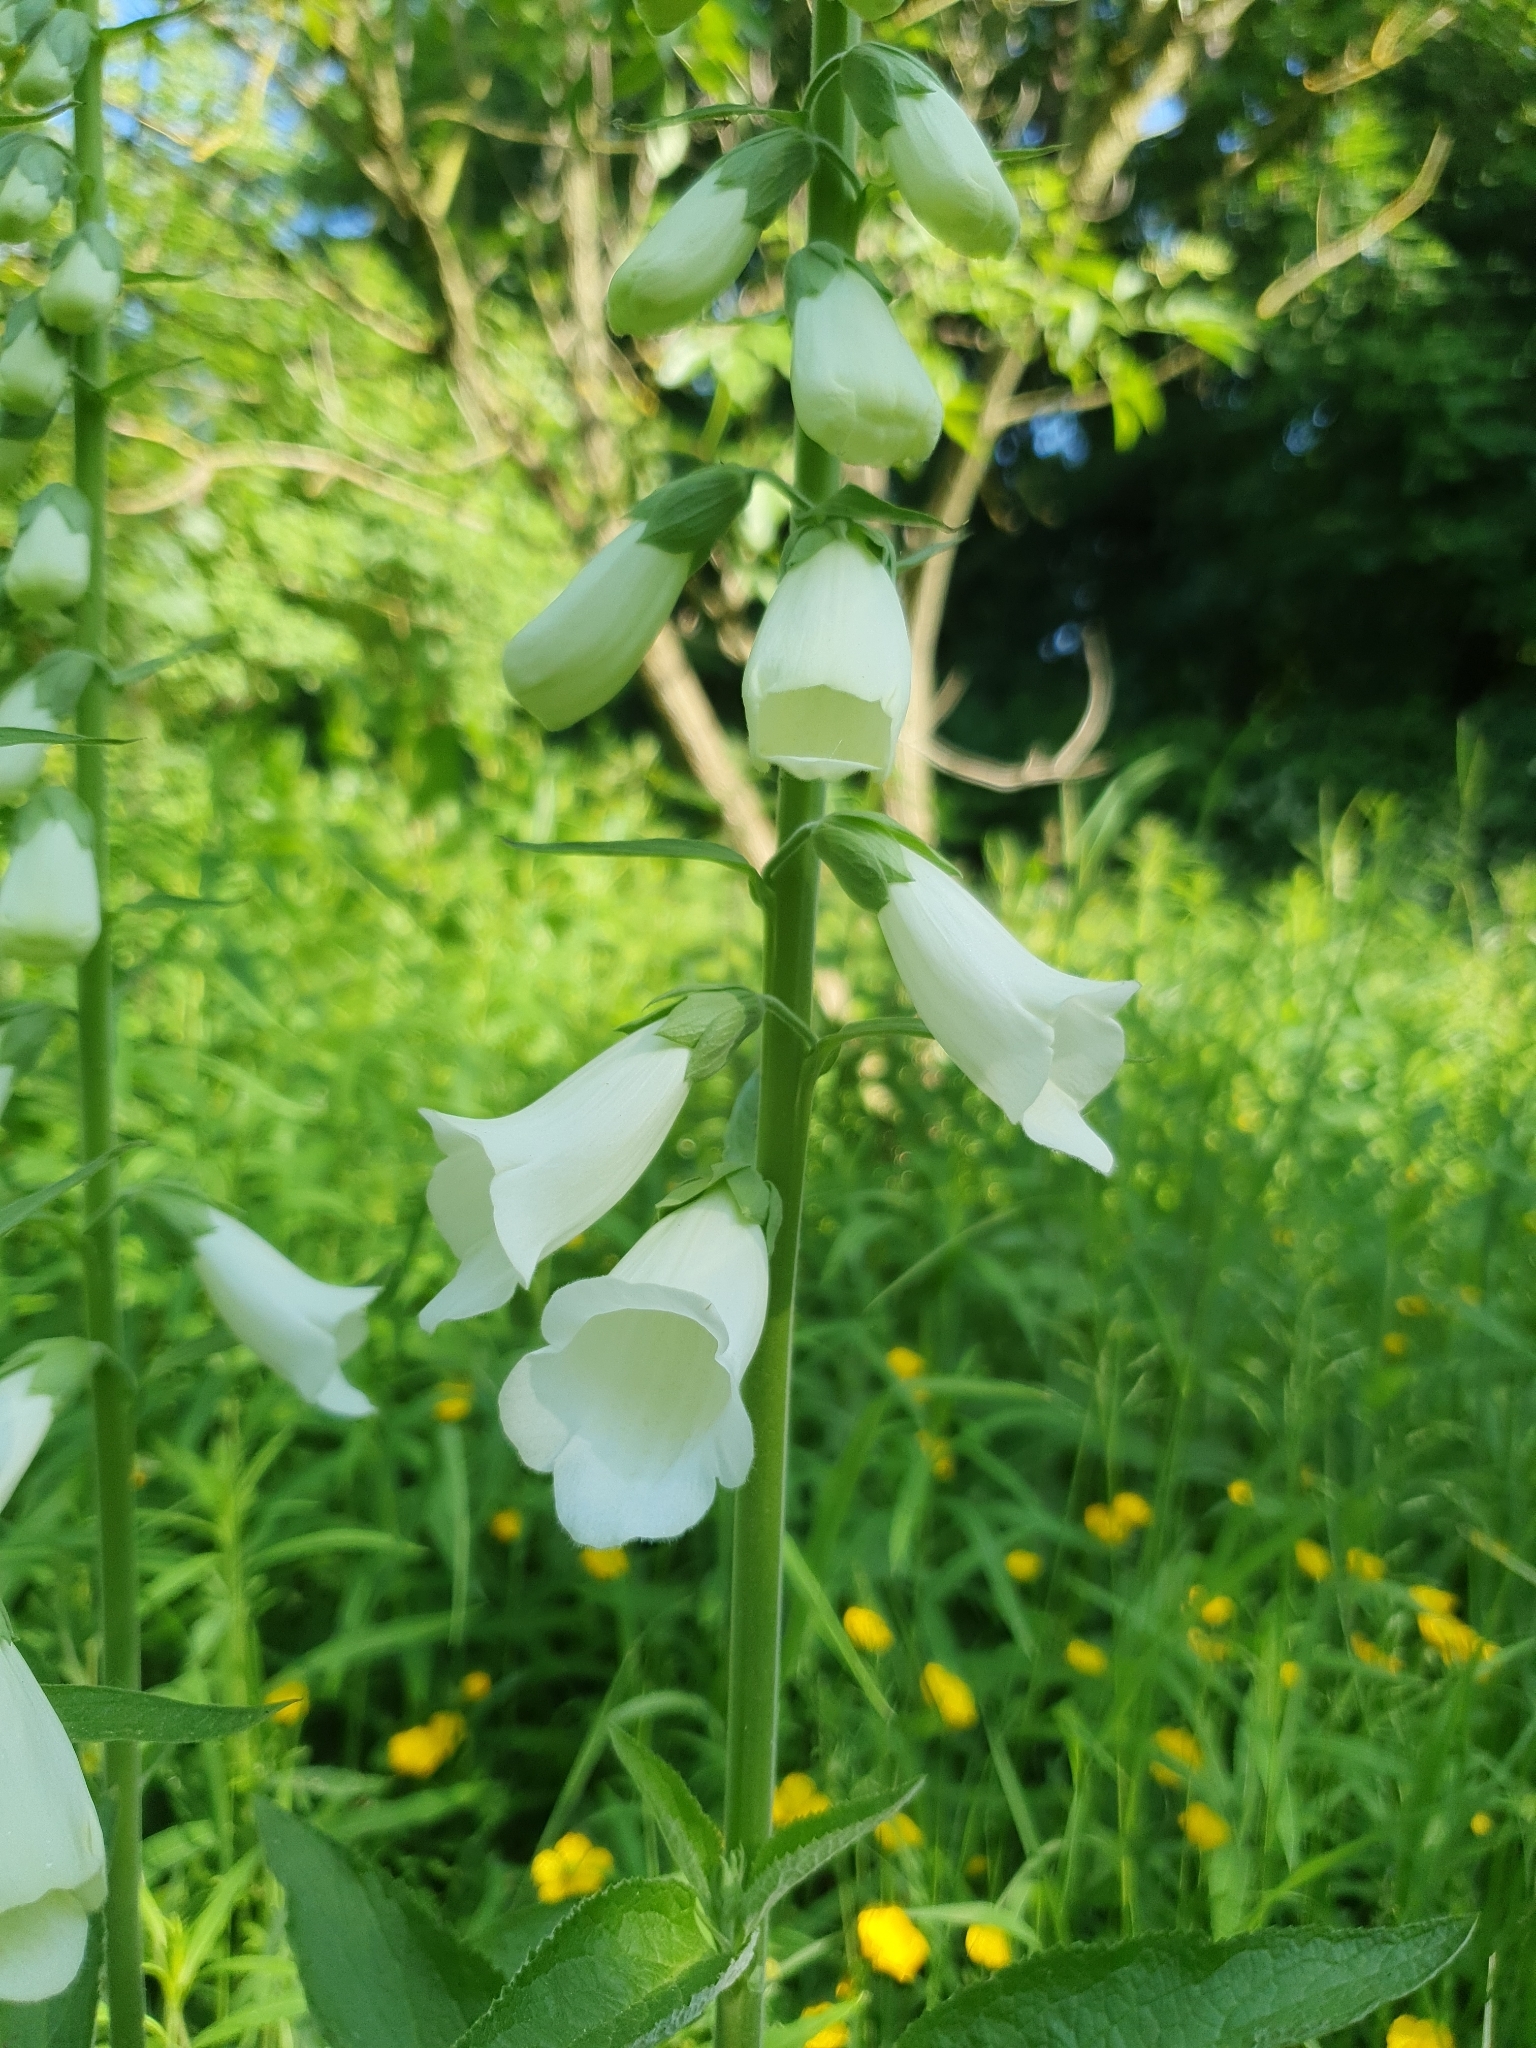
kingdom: Plantae
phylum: Tracheophyta
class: Magnoliopsida
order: Lamiales
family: Plantaginaceae
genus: Digitalis
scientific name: Digitalis purpurea
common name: Foxglove
